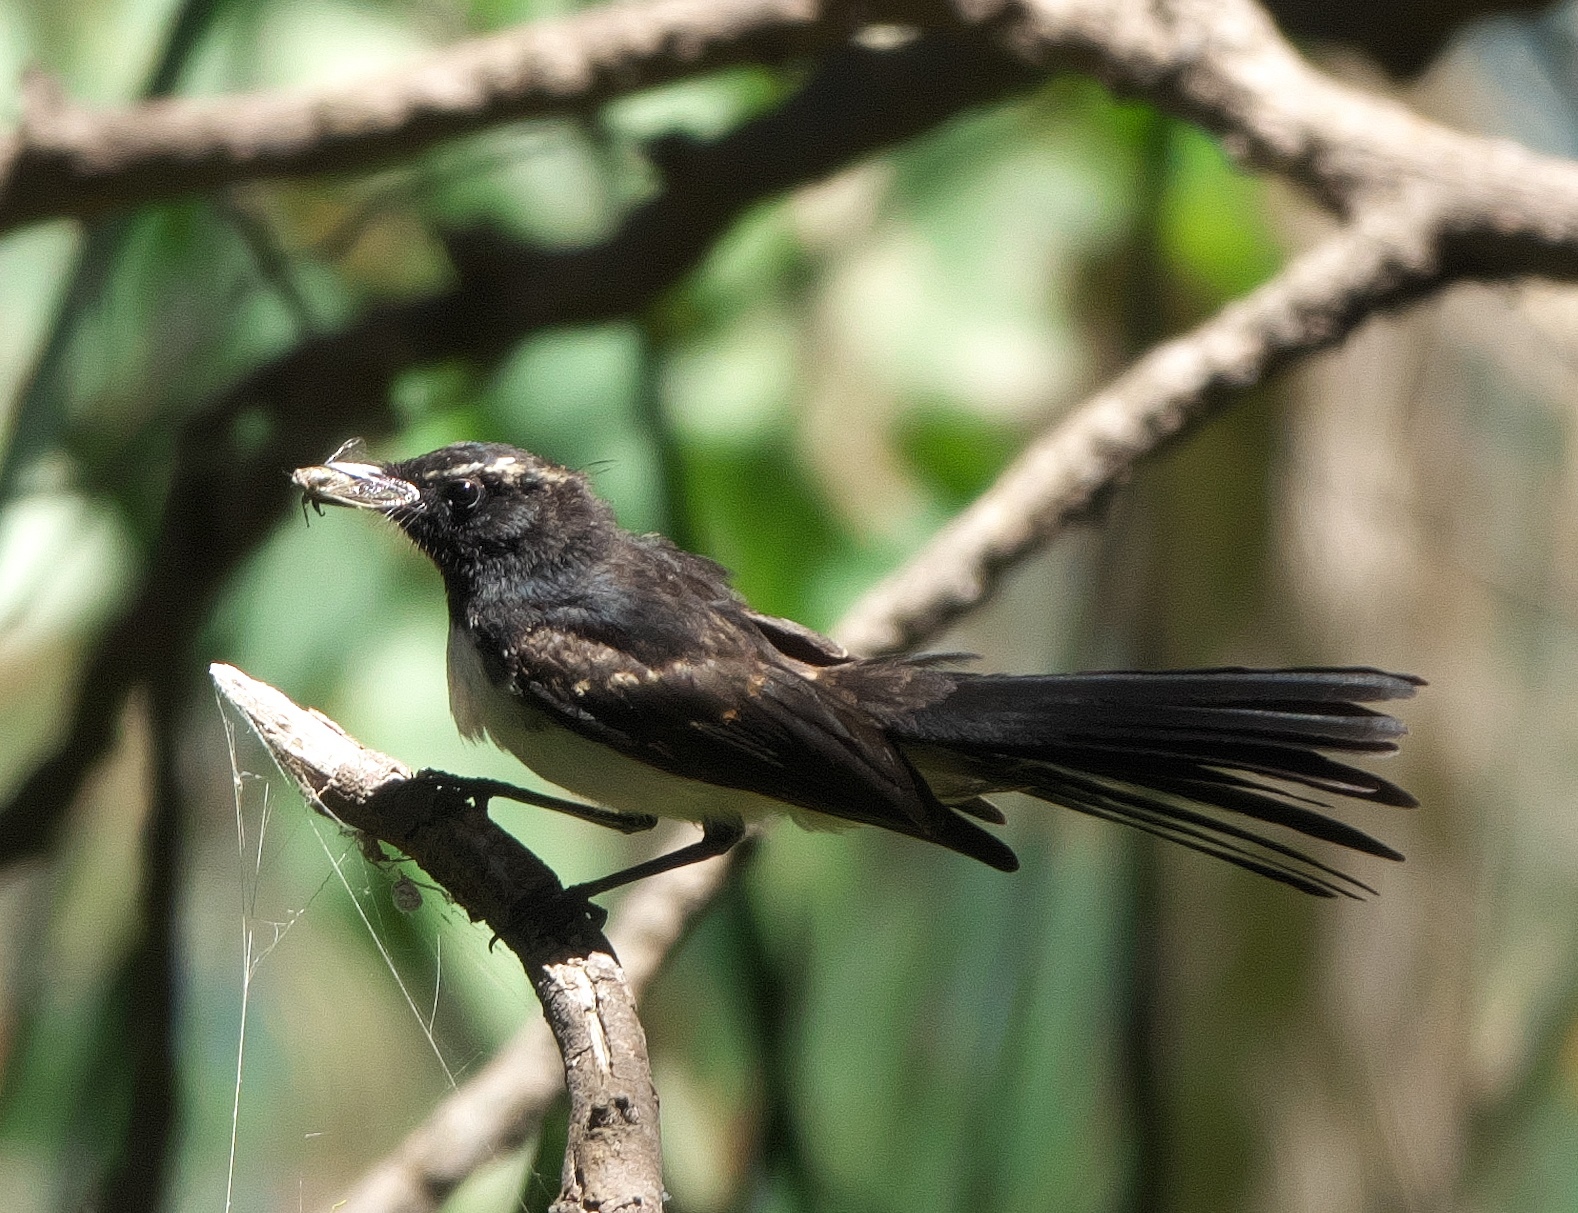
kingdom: Animalia
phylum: Chordata
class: Aves
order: Passeriformes
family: Rhipiduridae
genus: Rhipidura
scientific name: Rhipidura leucophrys
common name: Willie wagtail
